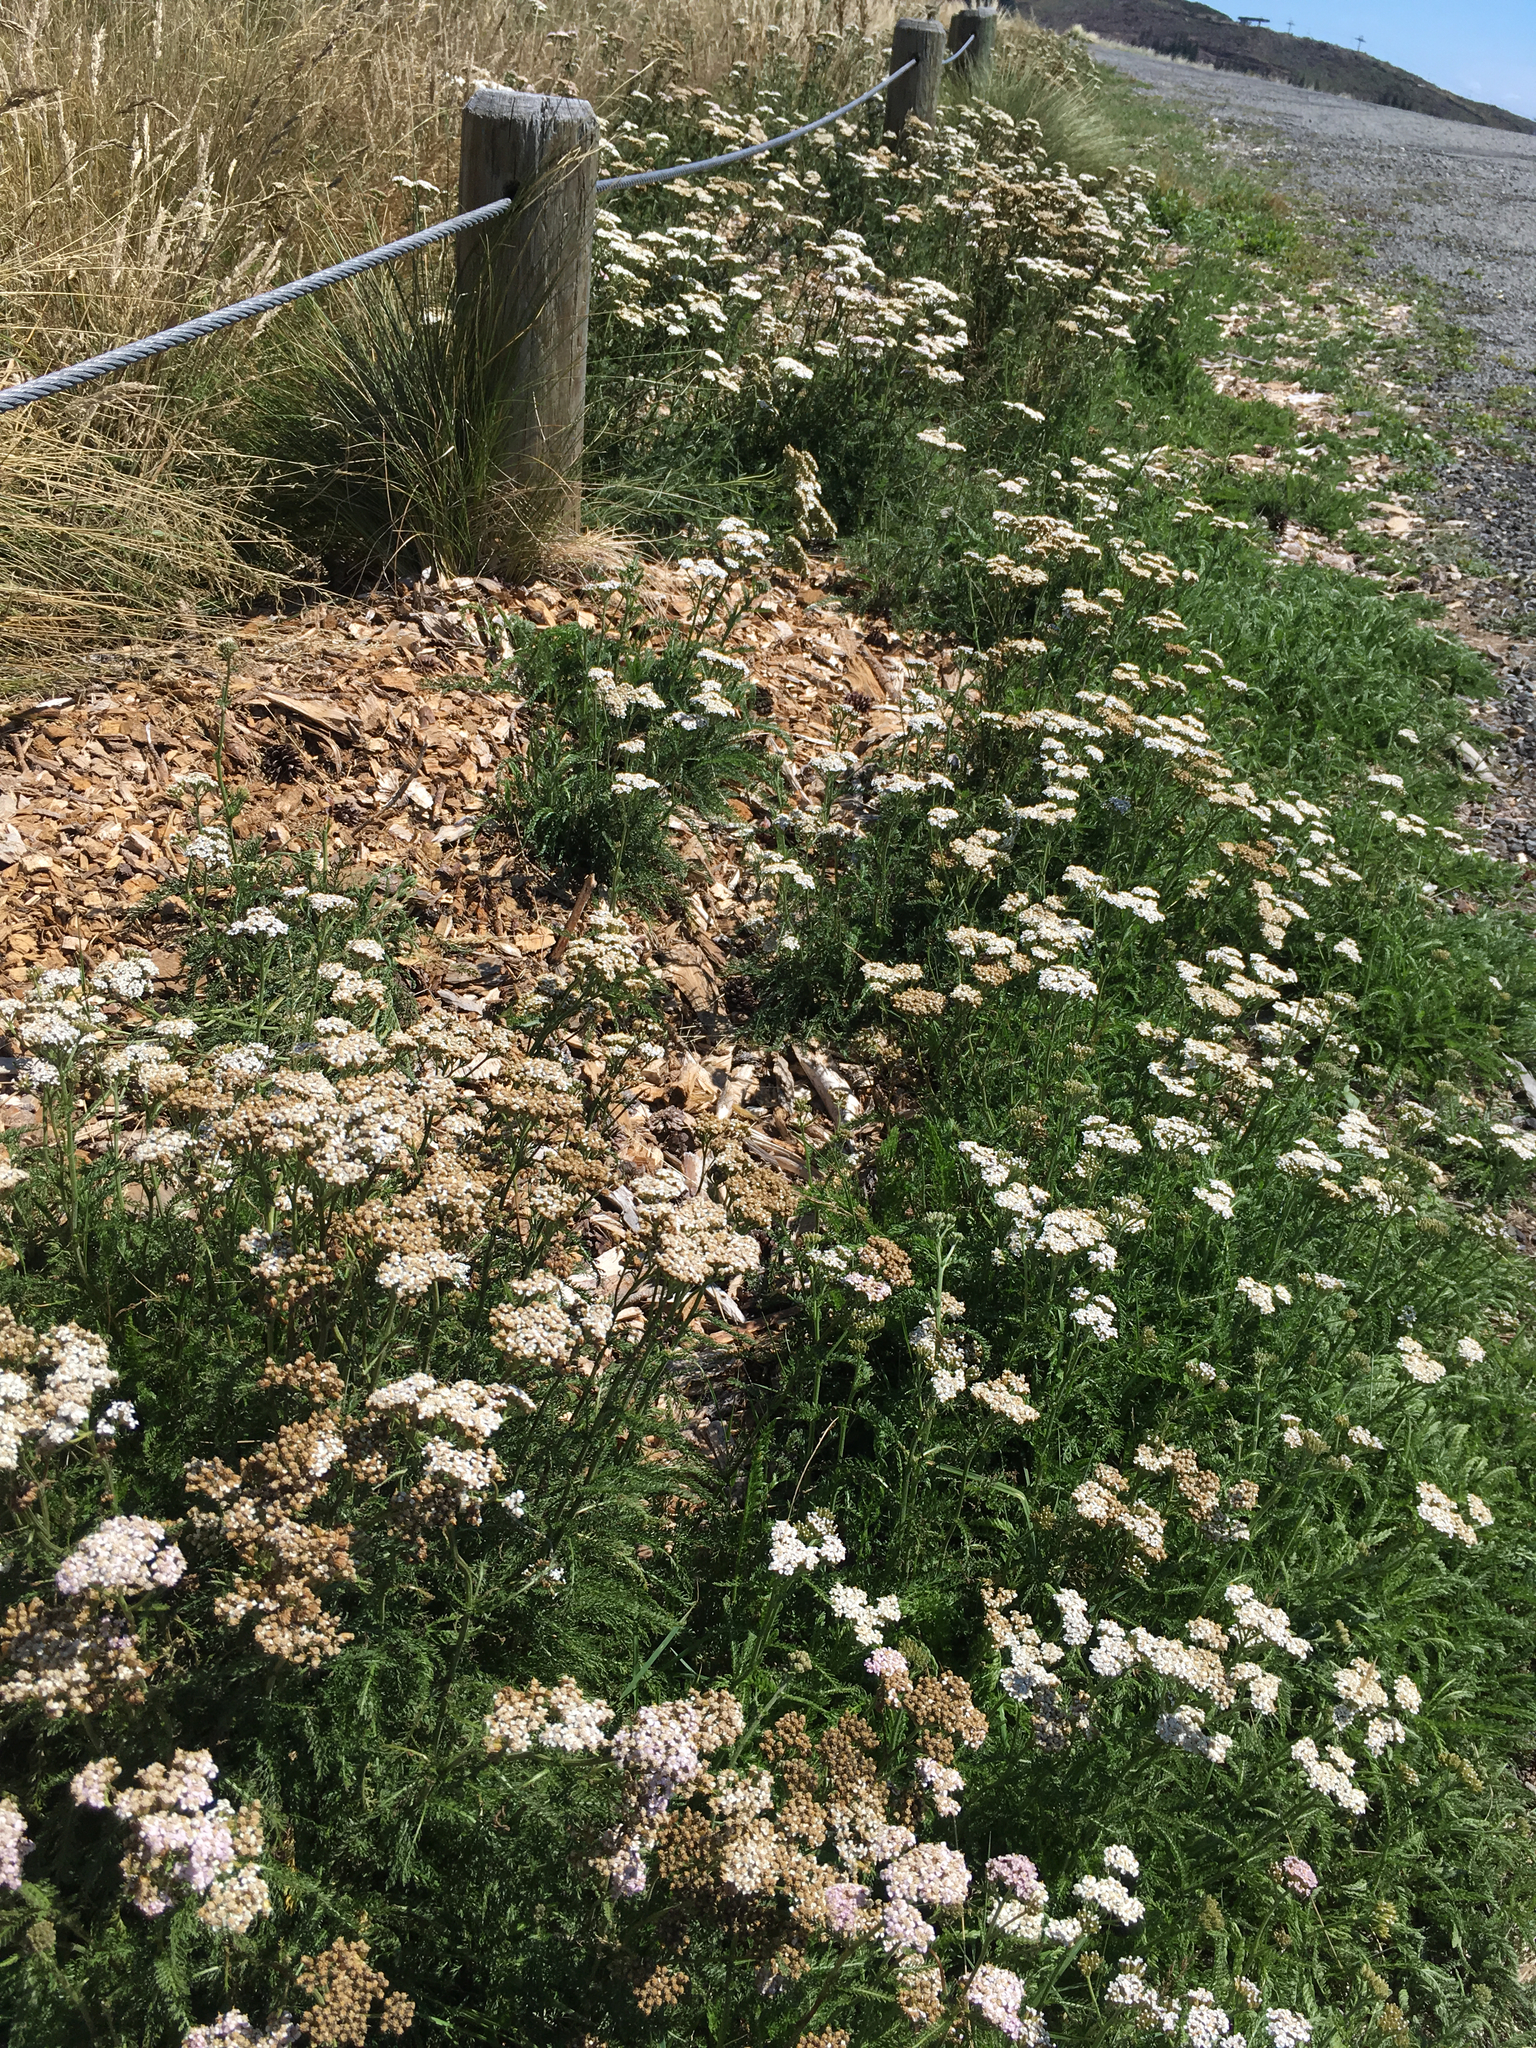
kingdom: Plantae
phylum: Tracheophyta
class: Magnoliopsida
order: Asterales
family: Asteraceae
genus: Achillea
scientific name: Achillea millefolium
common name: Yarrow
